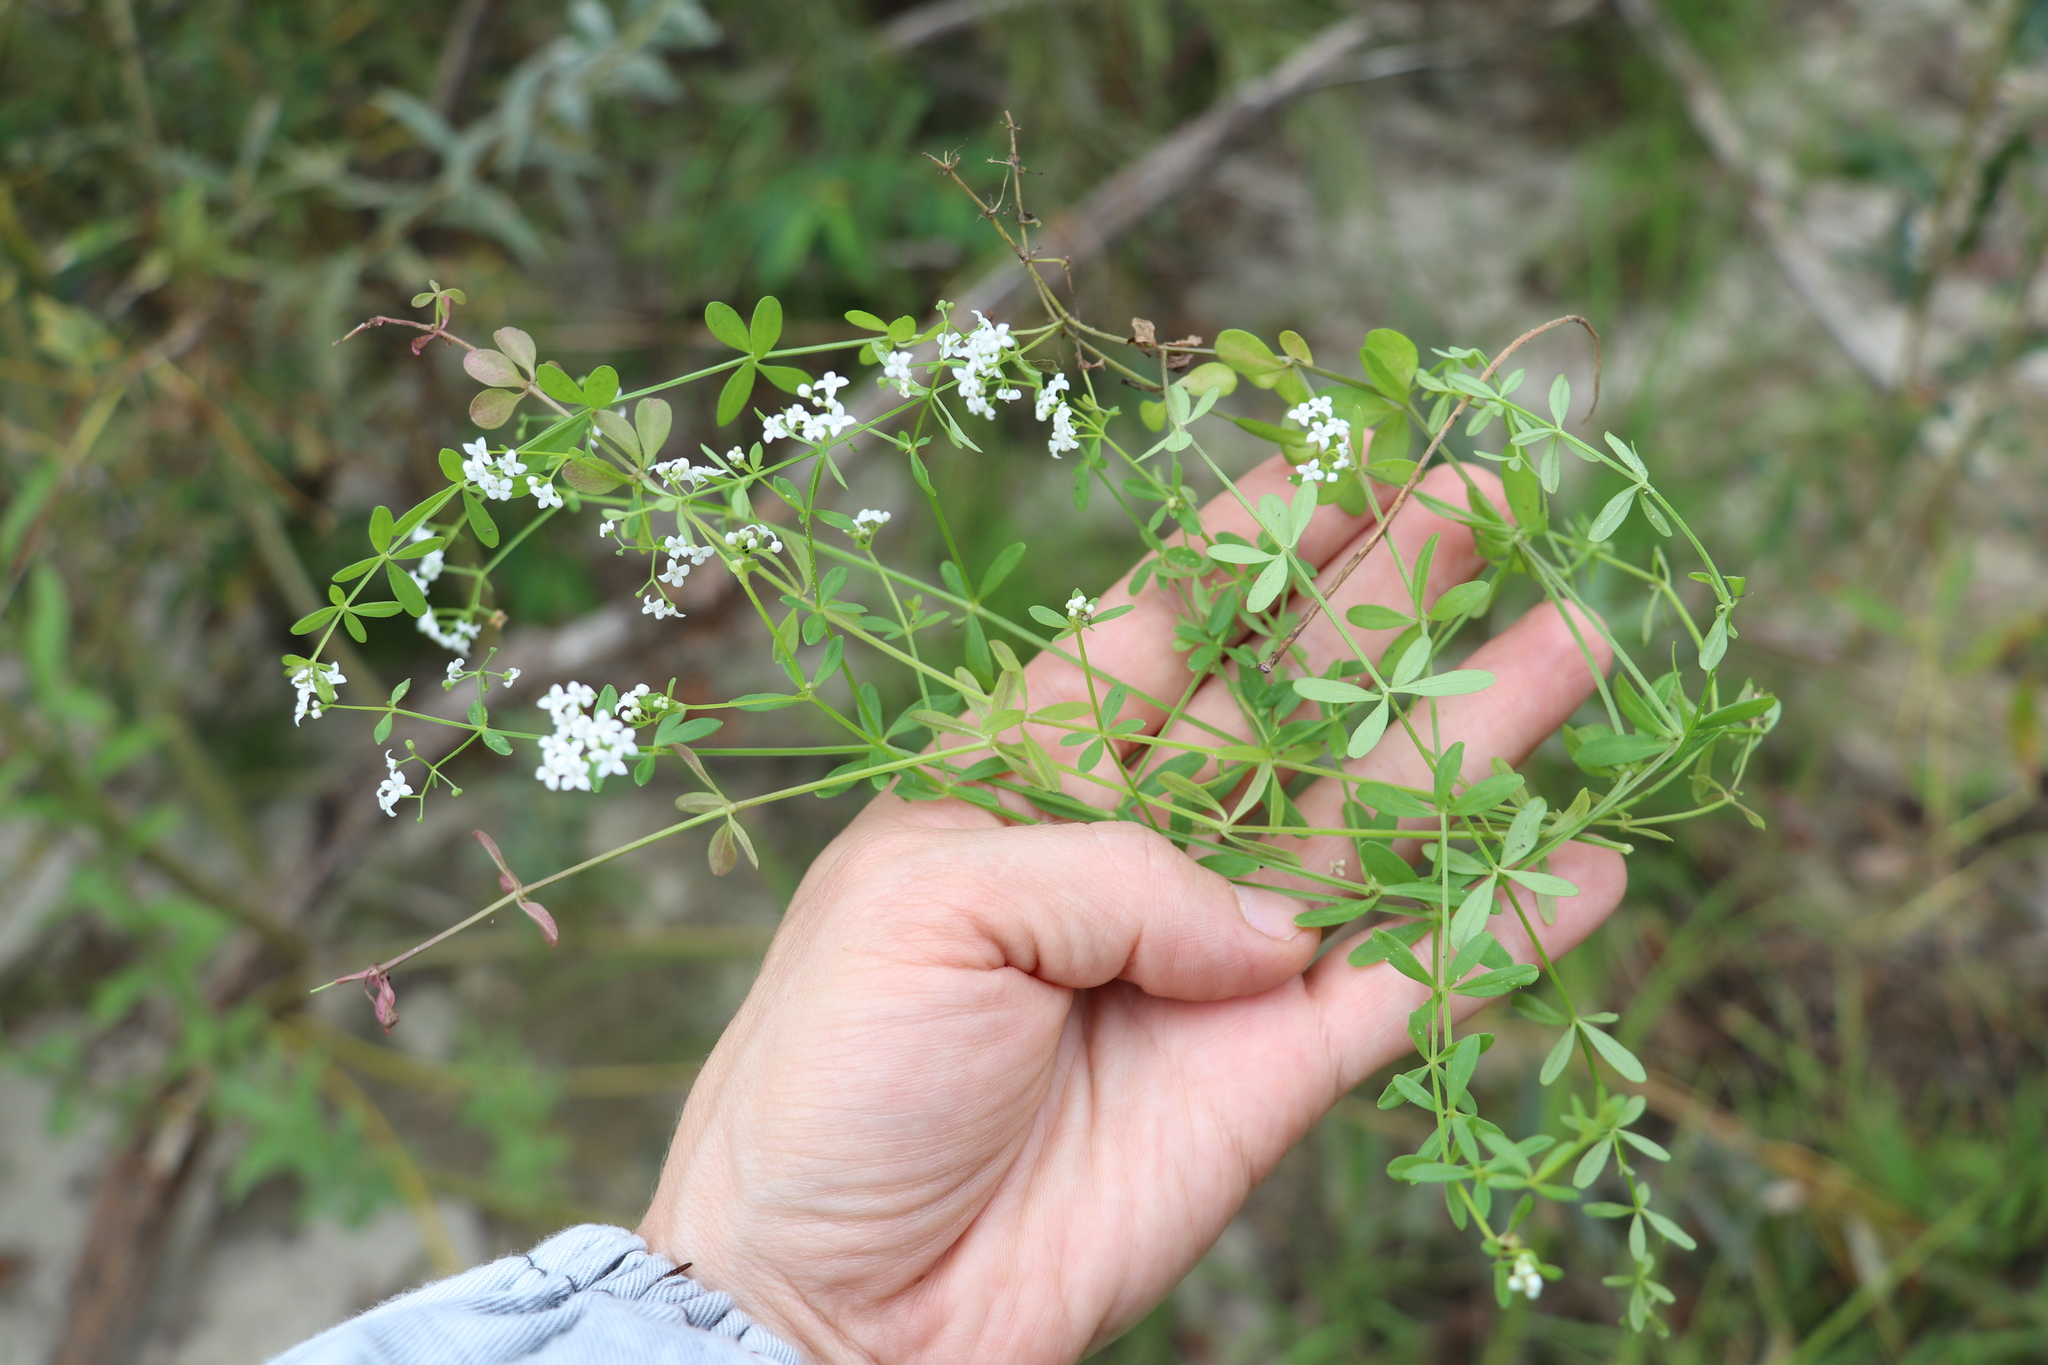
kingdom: Plantae
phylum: Tracheophyta
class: Magnoliopsida
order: Gentianales
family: Rubiaceae
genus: Galium
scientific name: Galium palustre
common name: Common marsh-bedstraw
